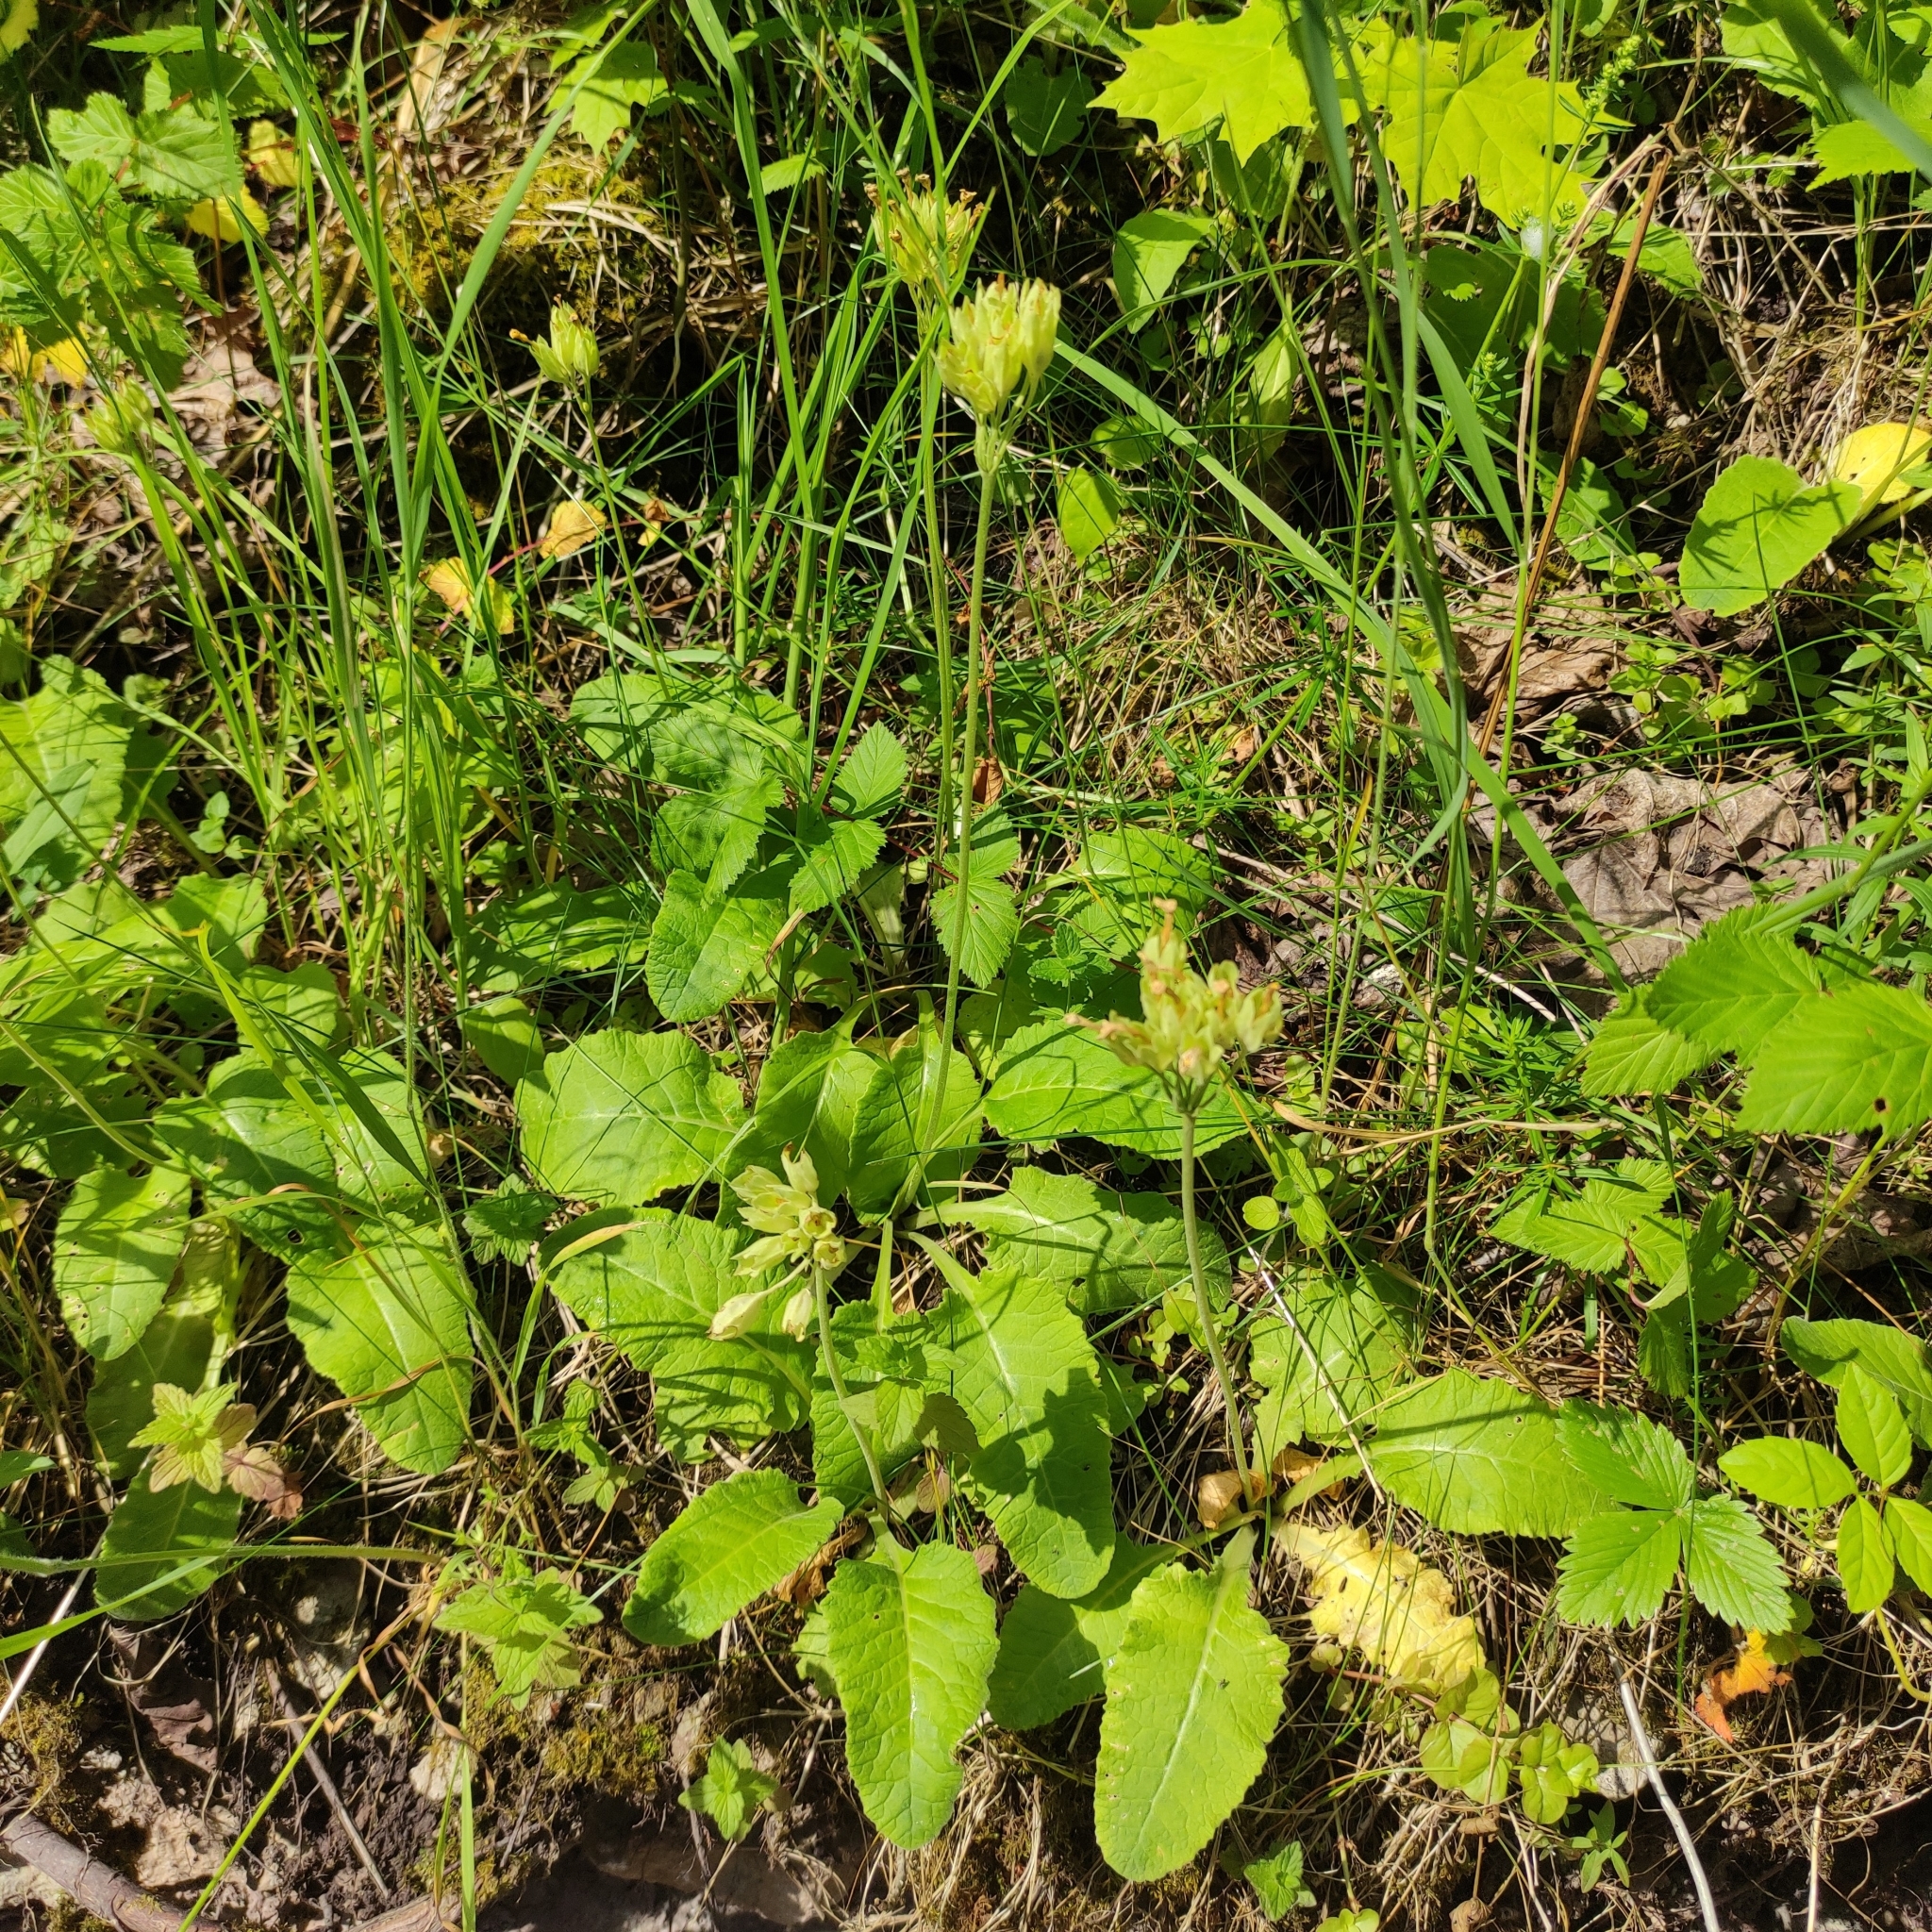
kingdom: Plantae
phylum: Tracheophyta
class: Magnoliopsida
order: Ericales
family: Primulaceae
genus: Primula
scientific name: Primula veris
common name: Cowslip
